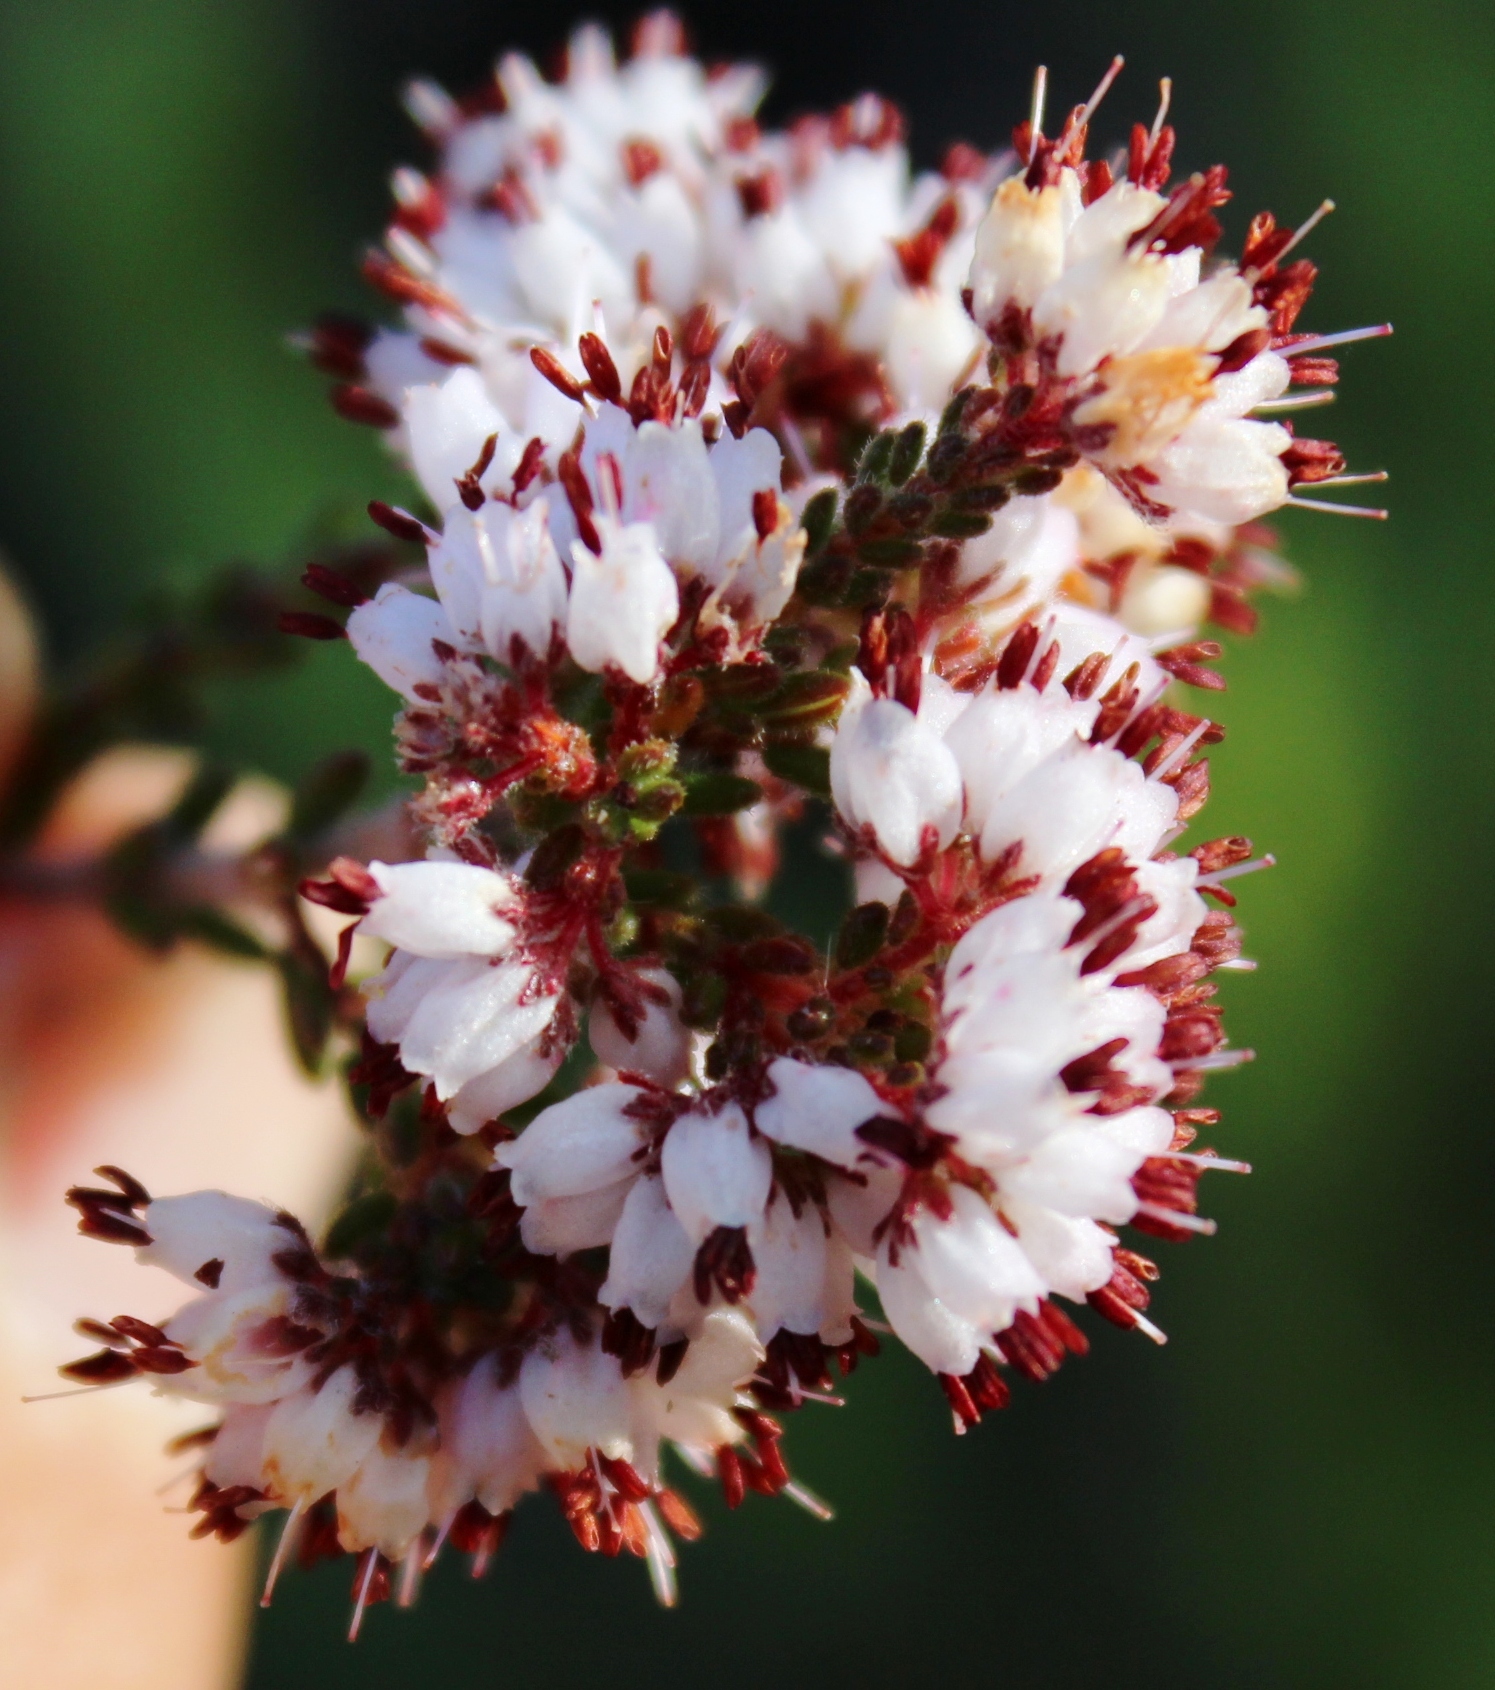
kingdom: Plantae
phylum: Tracheophyta
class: Magnoliopsida
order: Ericales
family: Ericaceae
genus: Erica
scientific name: Erica glabella
